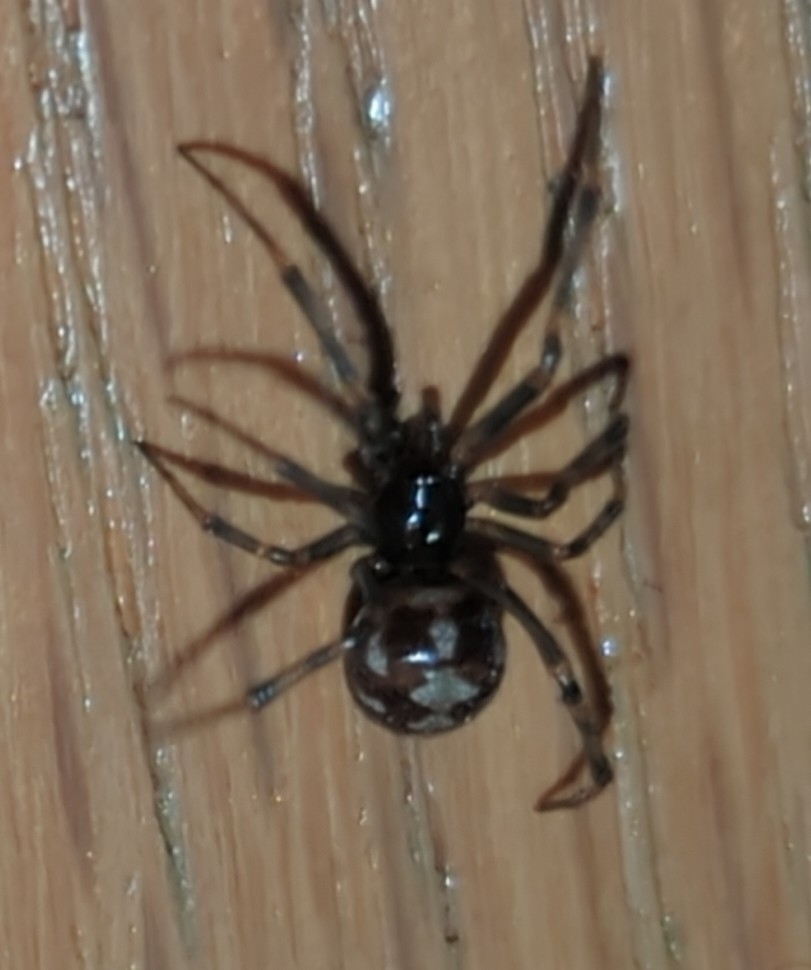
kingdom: Animalia
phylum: Arthropoda
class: Arachnida
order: Araneae
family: Theridiidae
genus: Steatoda
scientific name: Steatoda triangulosa
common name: Triangulate bud spider
